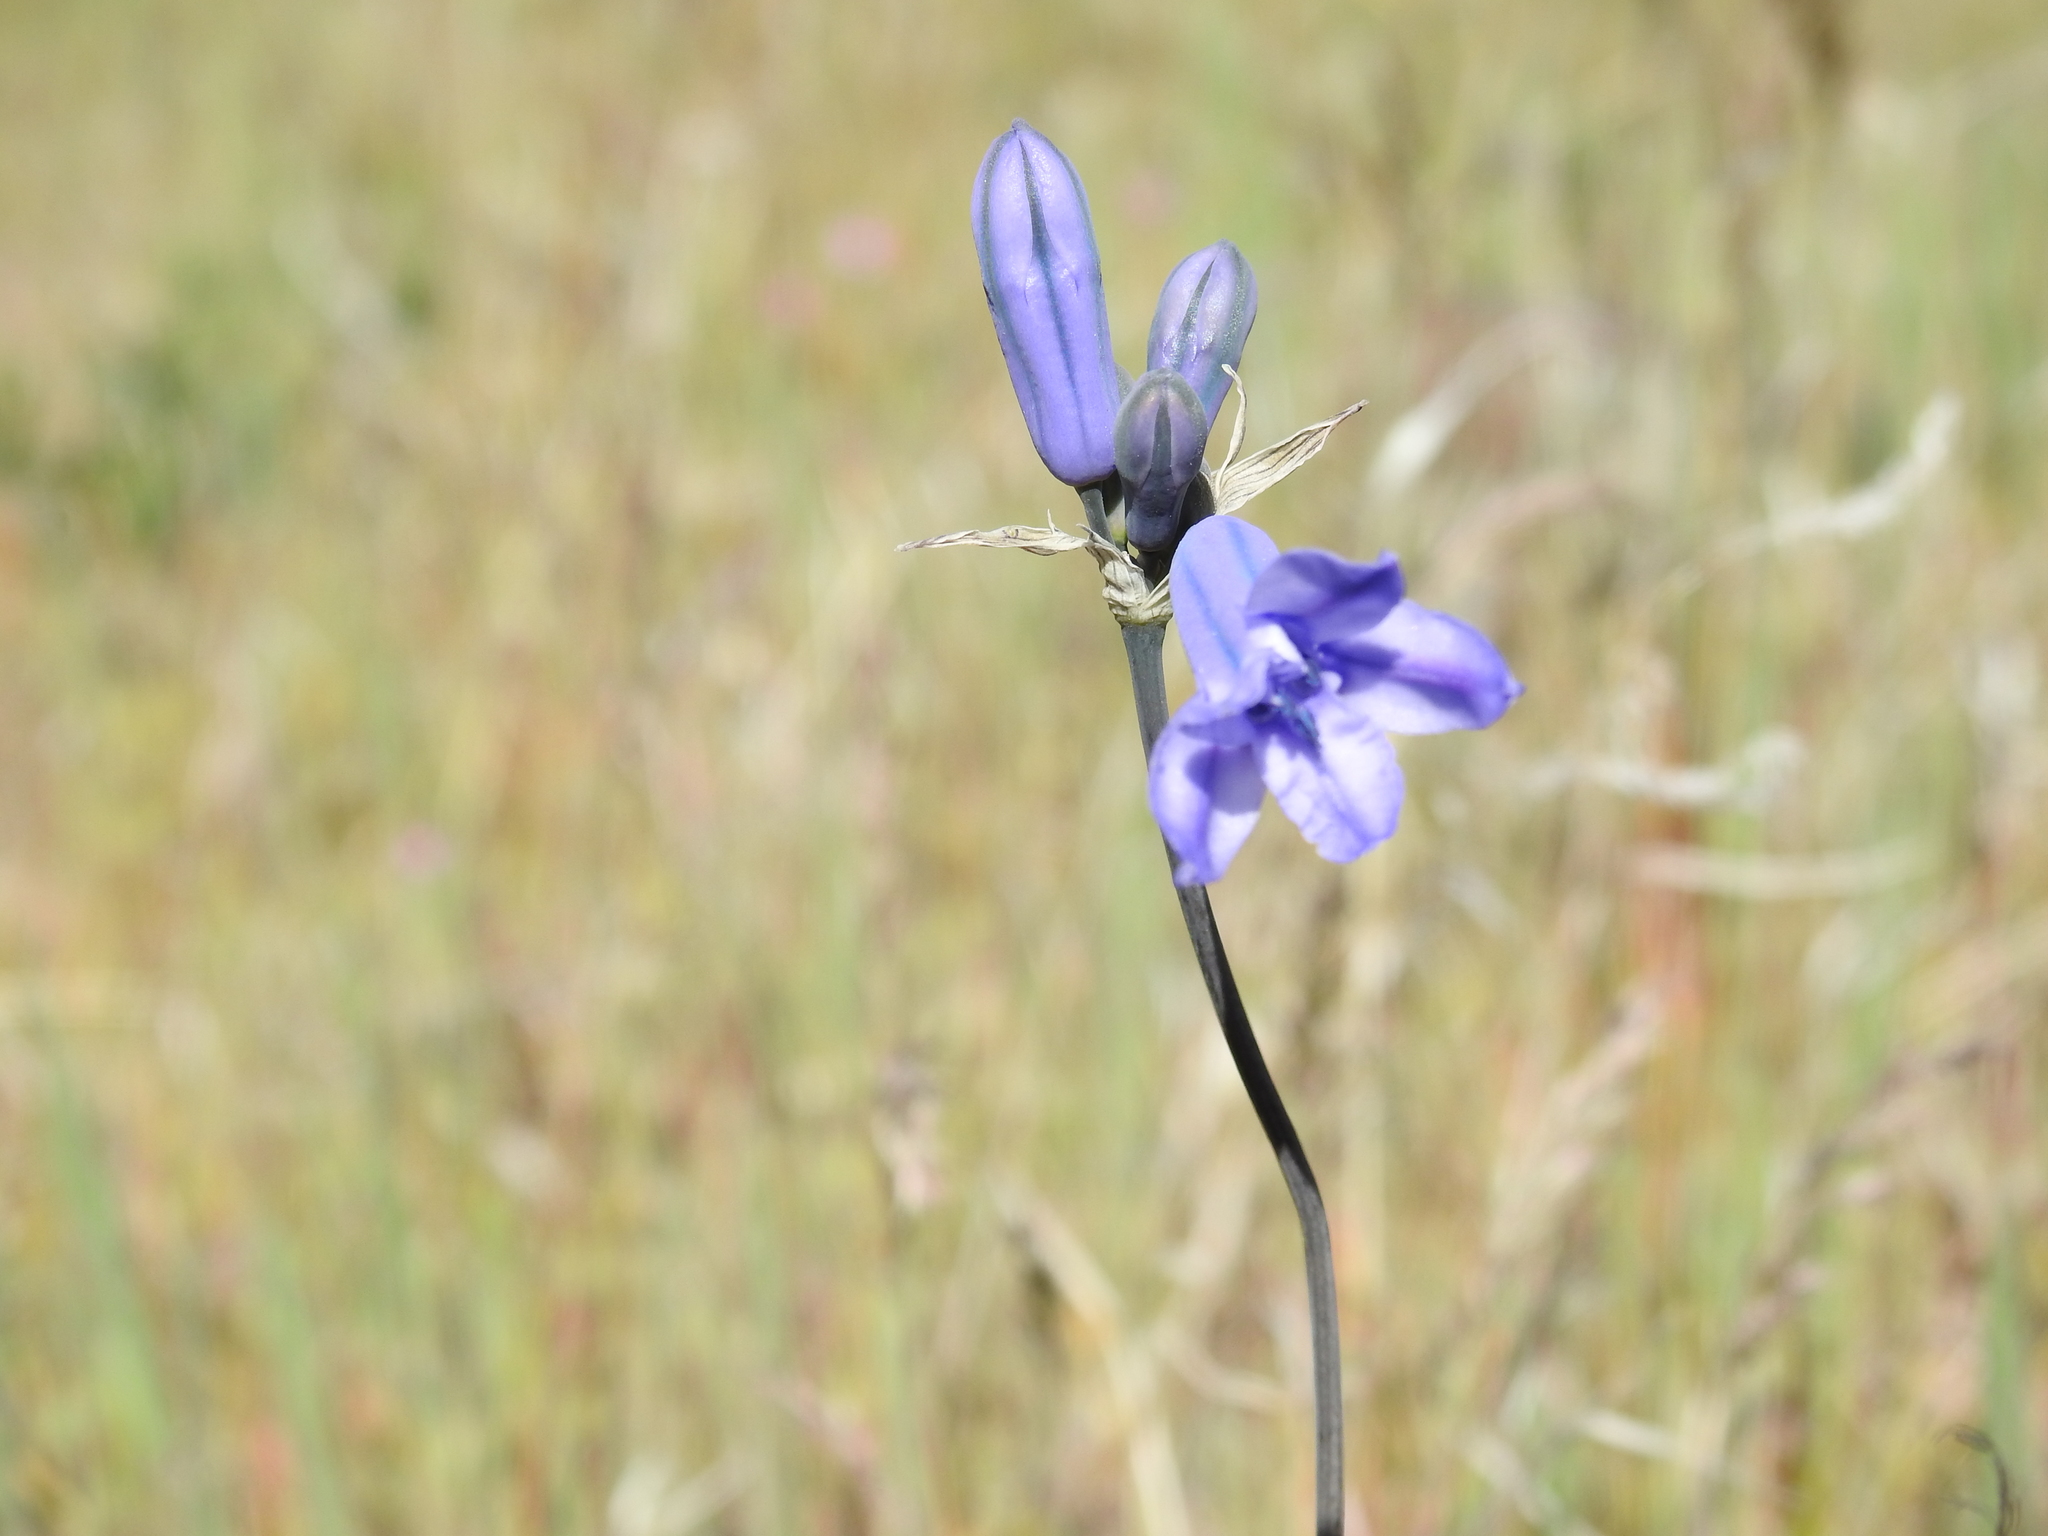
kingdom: Plantae
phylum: Tracheophyta
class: Liliopsida
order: Asparagales
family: Asparagaceae
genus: Triteleia
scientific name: Triteleia grandiflora
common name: Wild hyacinth
